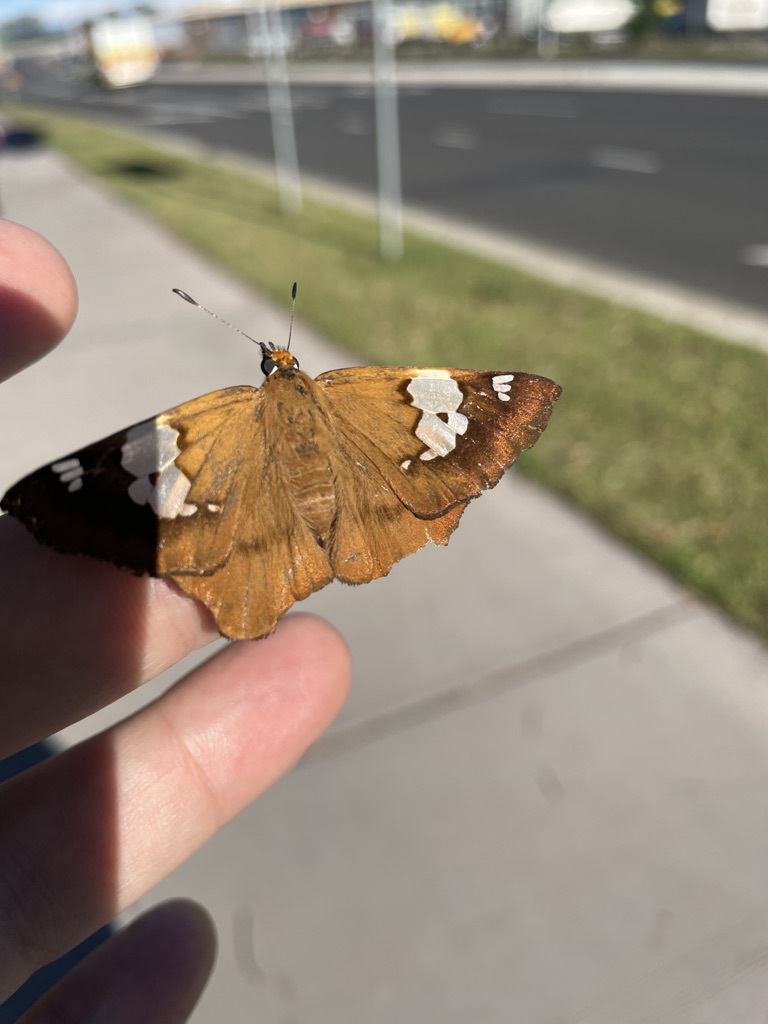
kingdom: Animalia
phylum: Arthropoda
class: Insecta
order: Lepidoptera
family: Hesperiidae
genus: Netrocoryne
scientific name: Netrocoryne repanda
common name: Bronze flat
